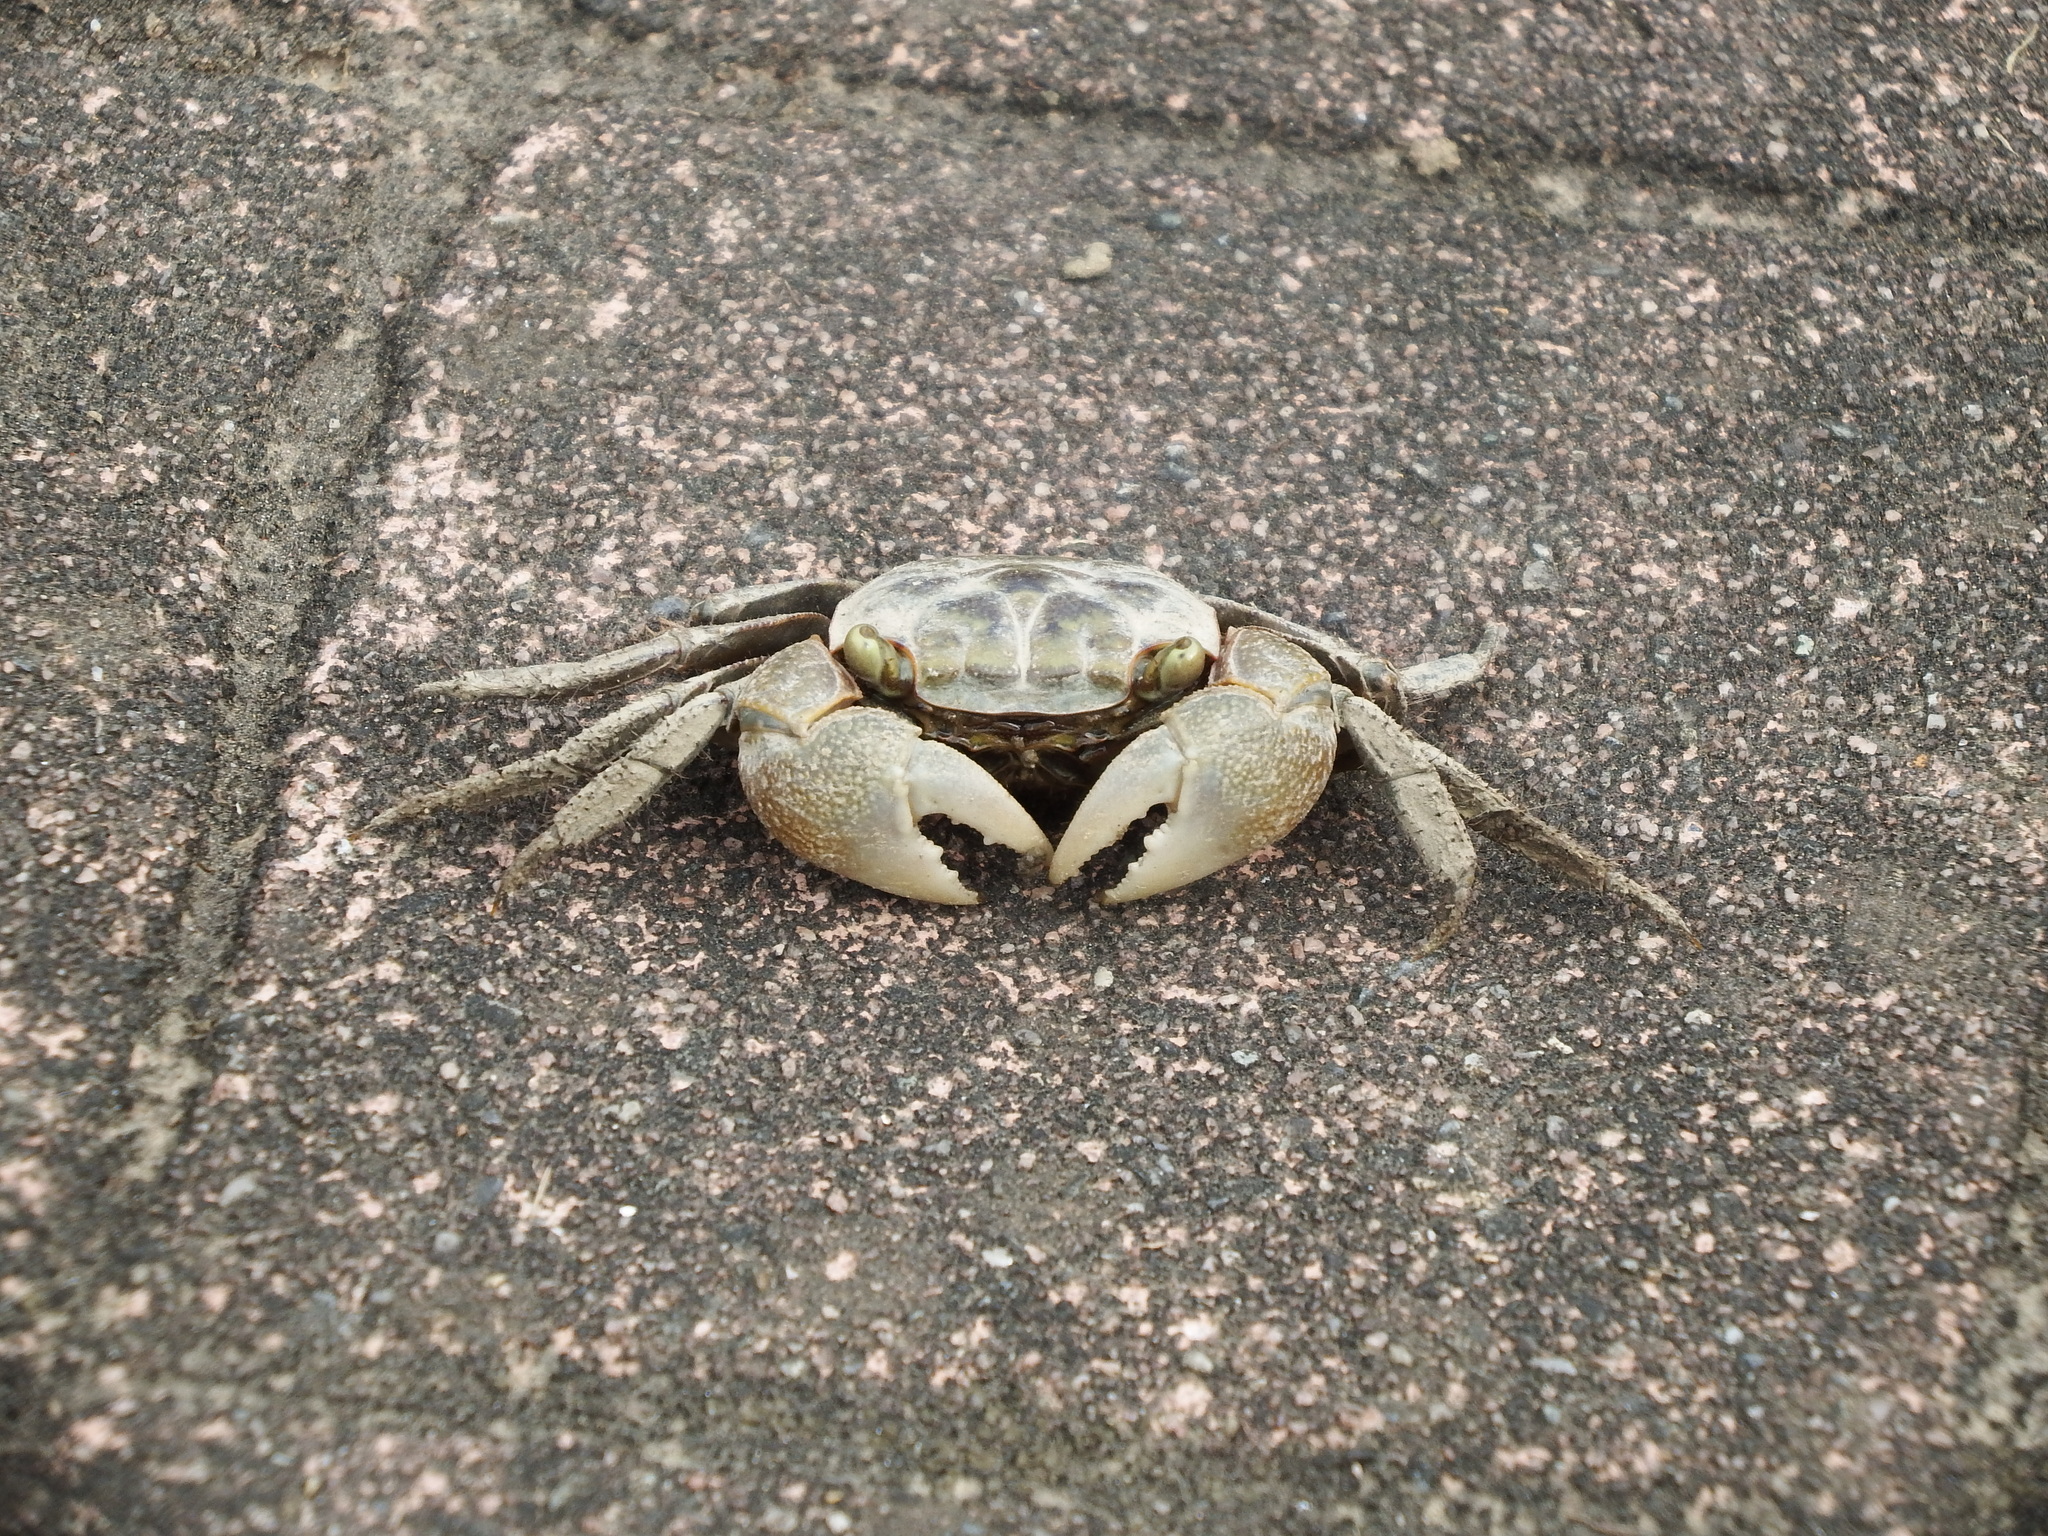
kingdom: Animalia
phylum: Arthropoda
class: Malacostraca
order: Decapoda
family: Sesarmidae
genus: Orisarma
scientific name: Orisarma dehaani
